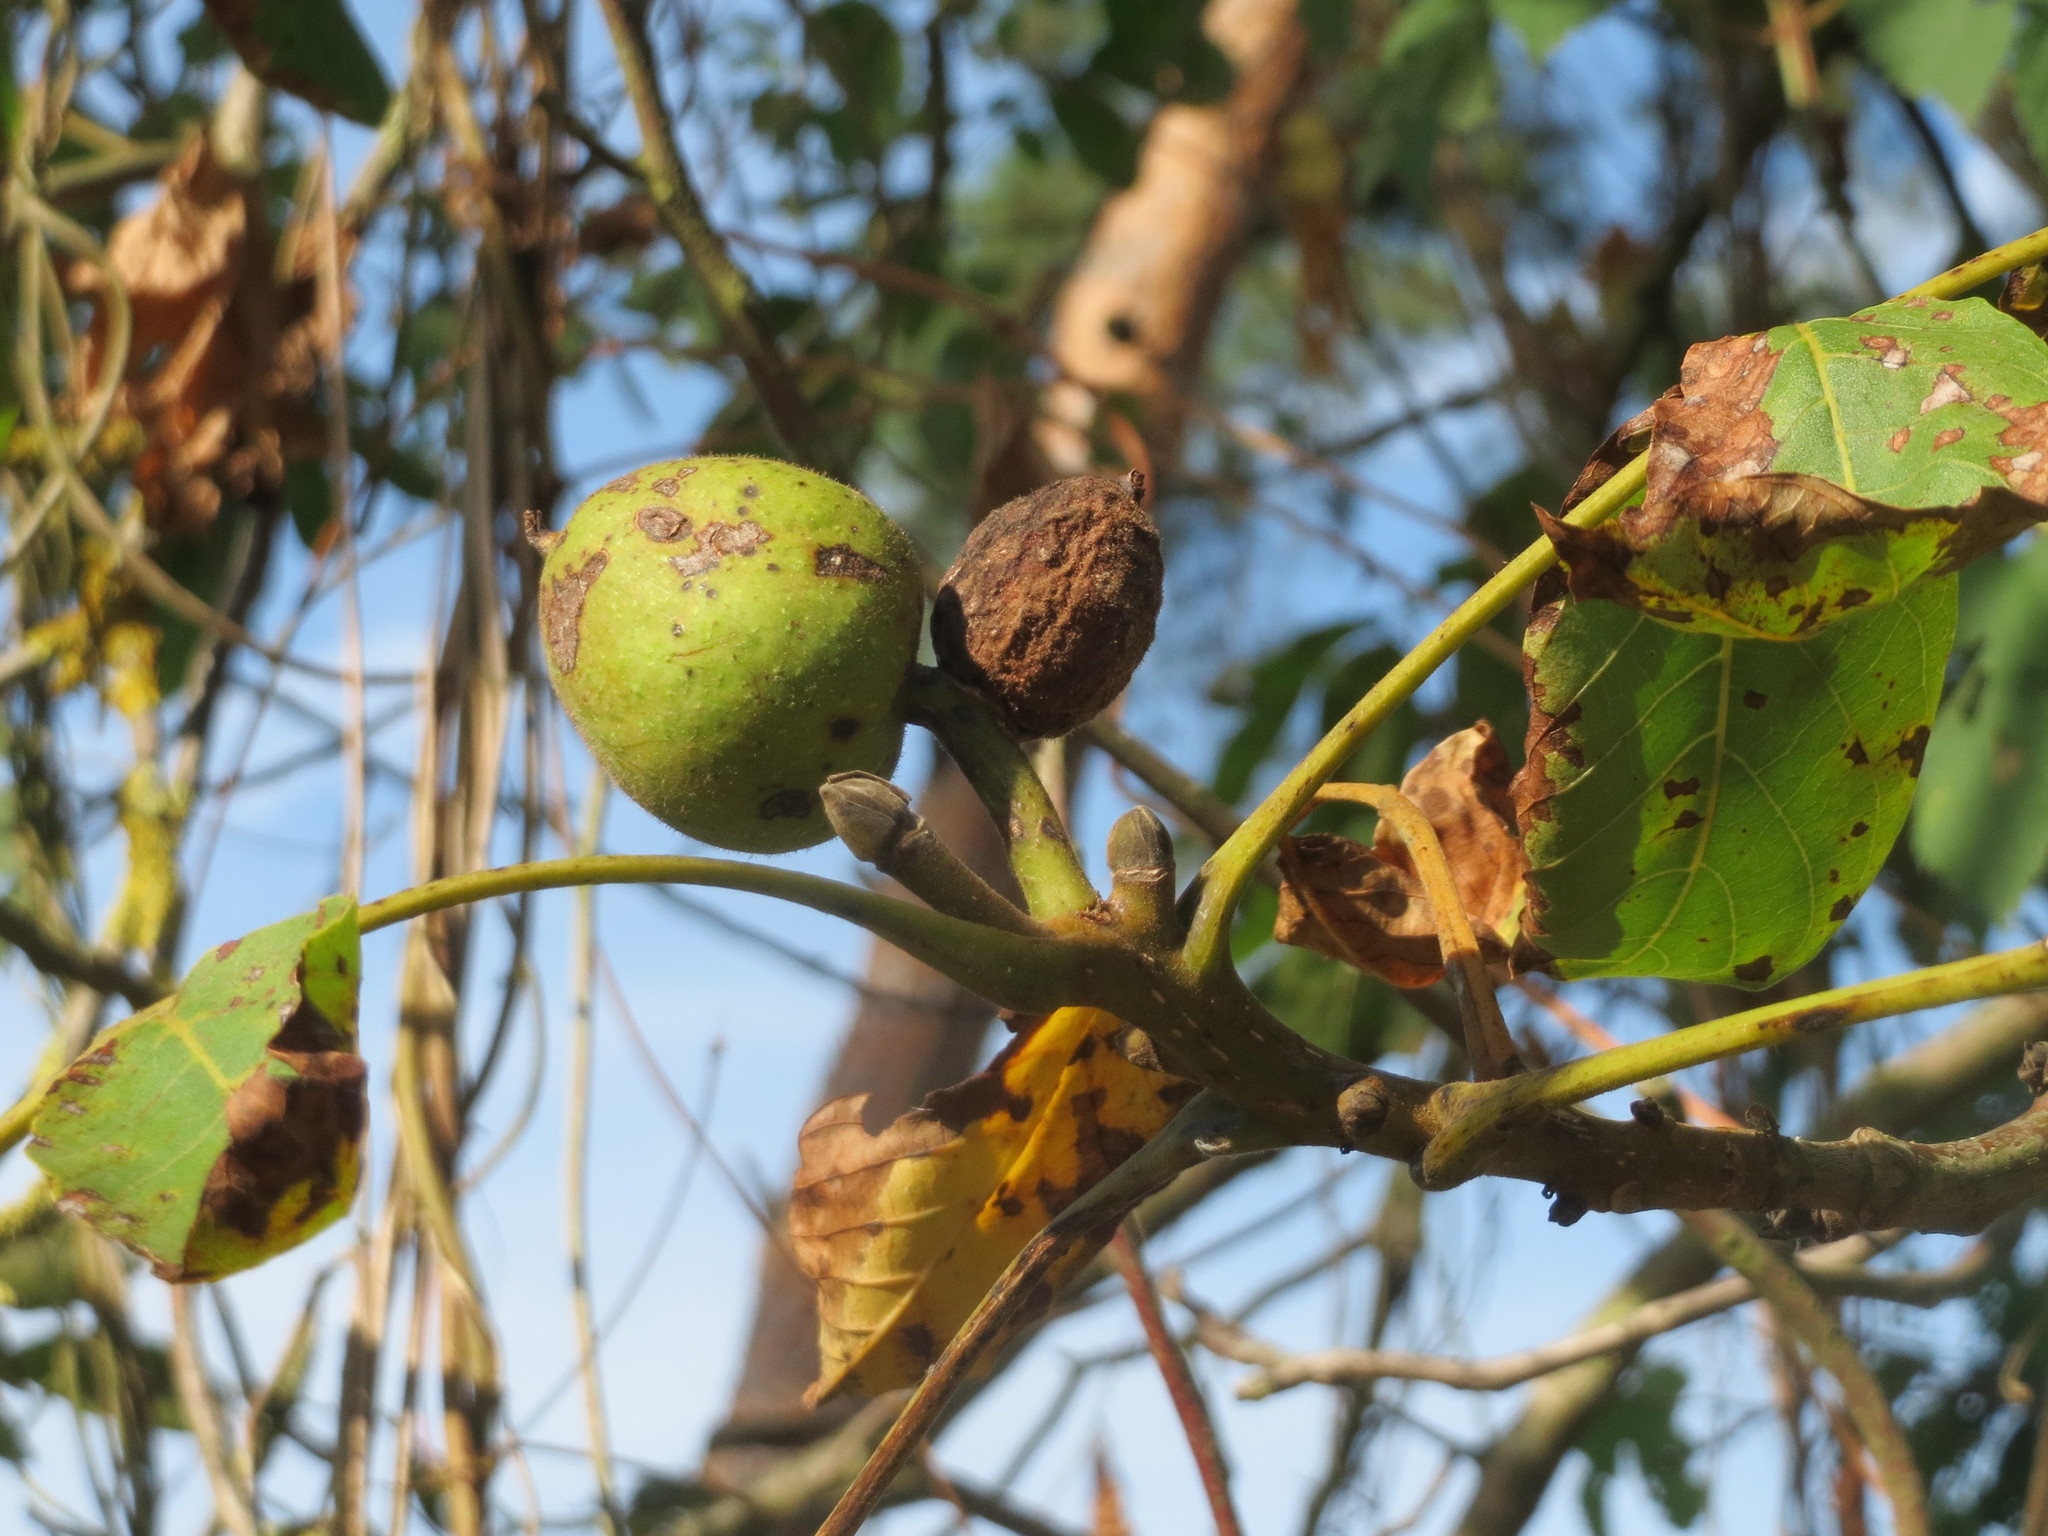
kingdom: Plantae
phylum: Tracheophyta
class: Magnoliopsida
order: Fagales
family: Juglandaceae
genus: Juglans
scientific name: Juglans regia
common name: Walnut
